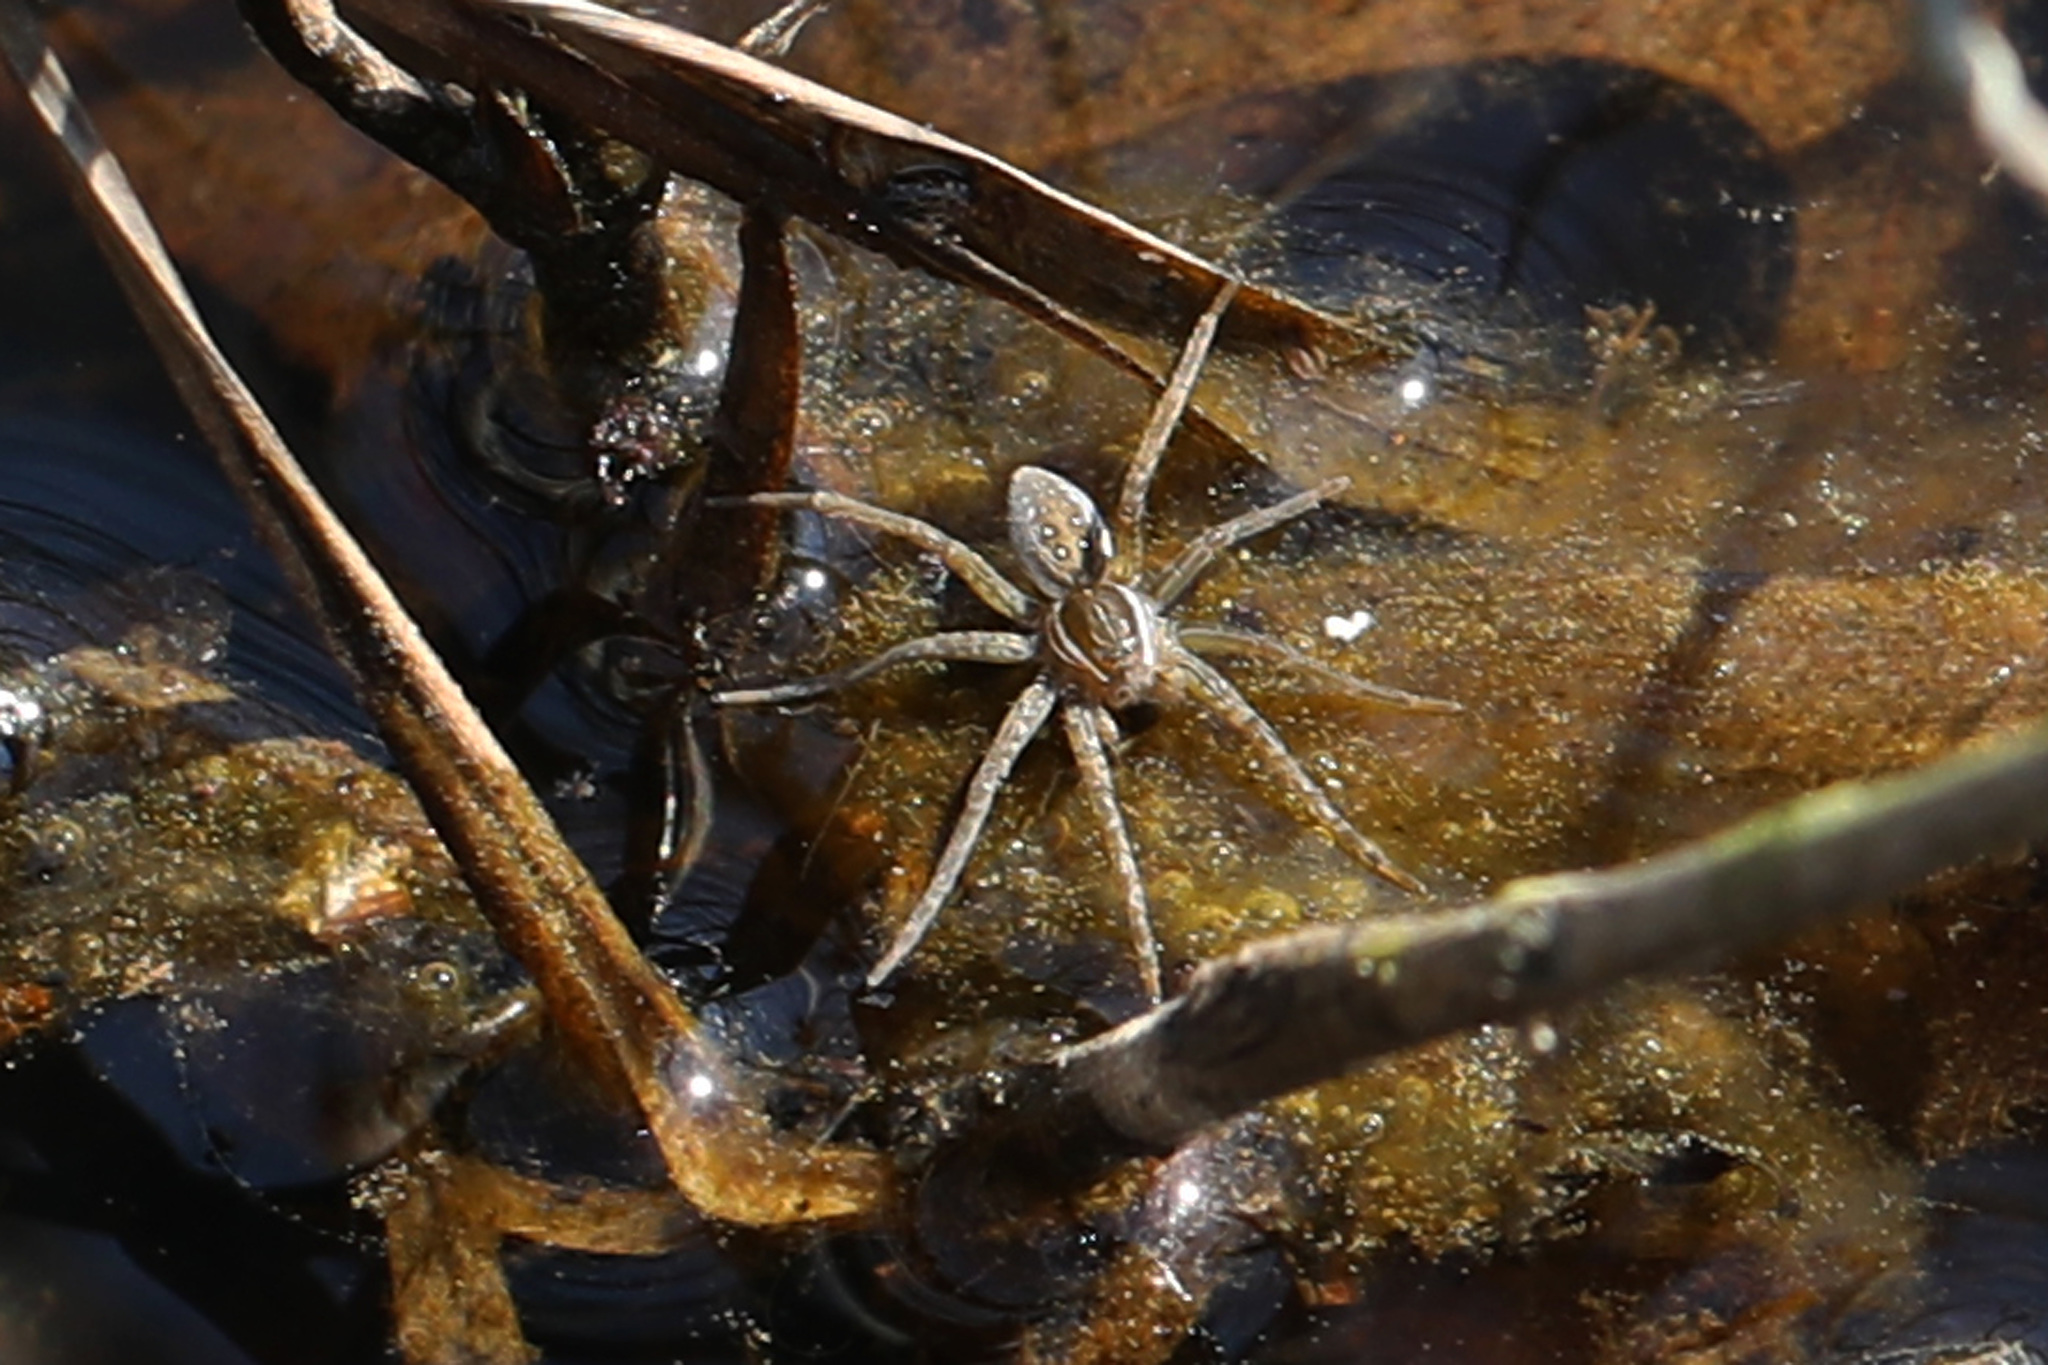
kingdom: Animalia
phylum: Arthropoda
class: Arachnida
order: Araneae
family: Pisauridae
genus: Dolomedes
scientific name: Dolomedes triton
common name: Six-spotted fishing spider
